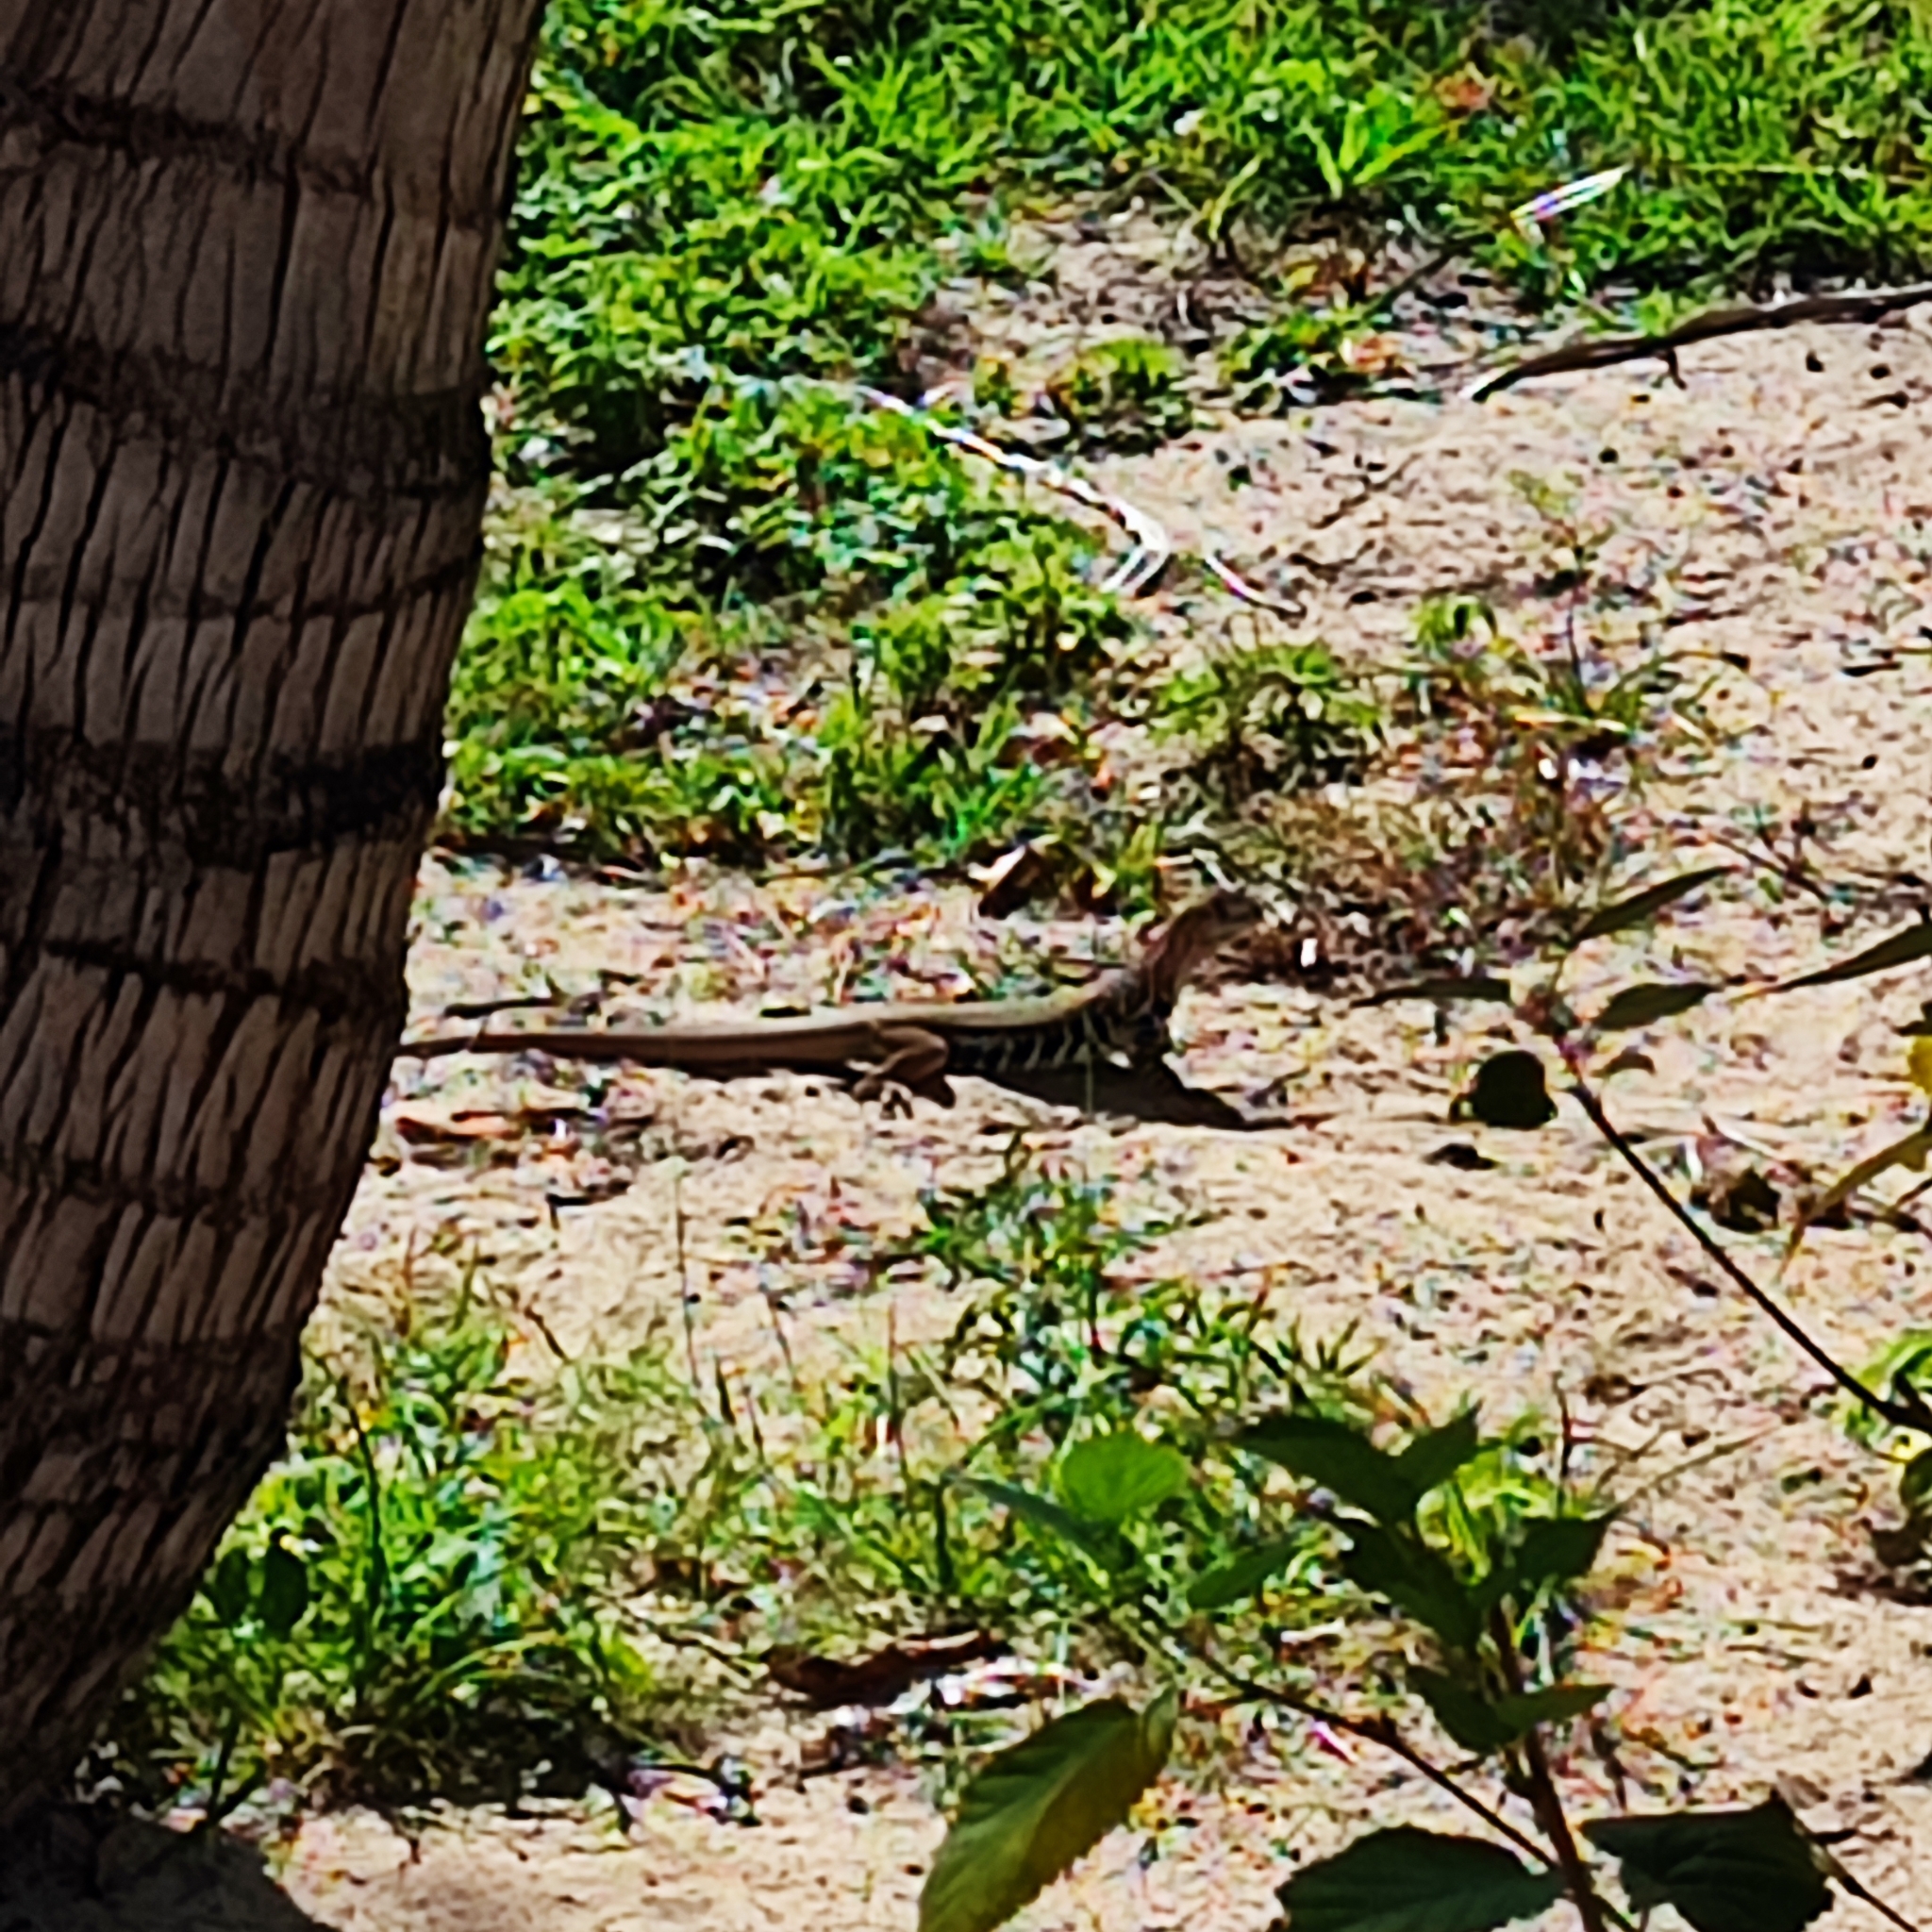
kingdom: Animalia
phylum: Chordata
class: Squamata
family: Agamidae
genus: Leiolepis
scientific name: Leiolepis guttata
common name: Spotted butterfly lizard
